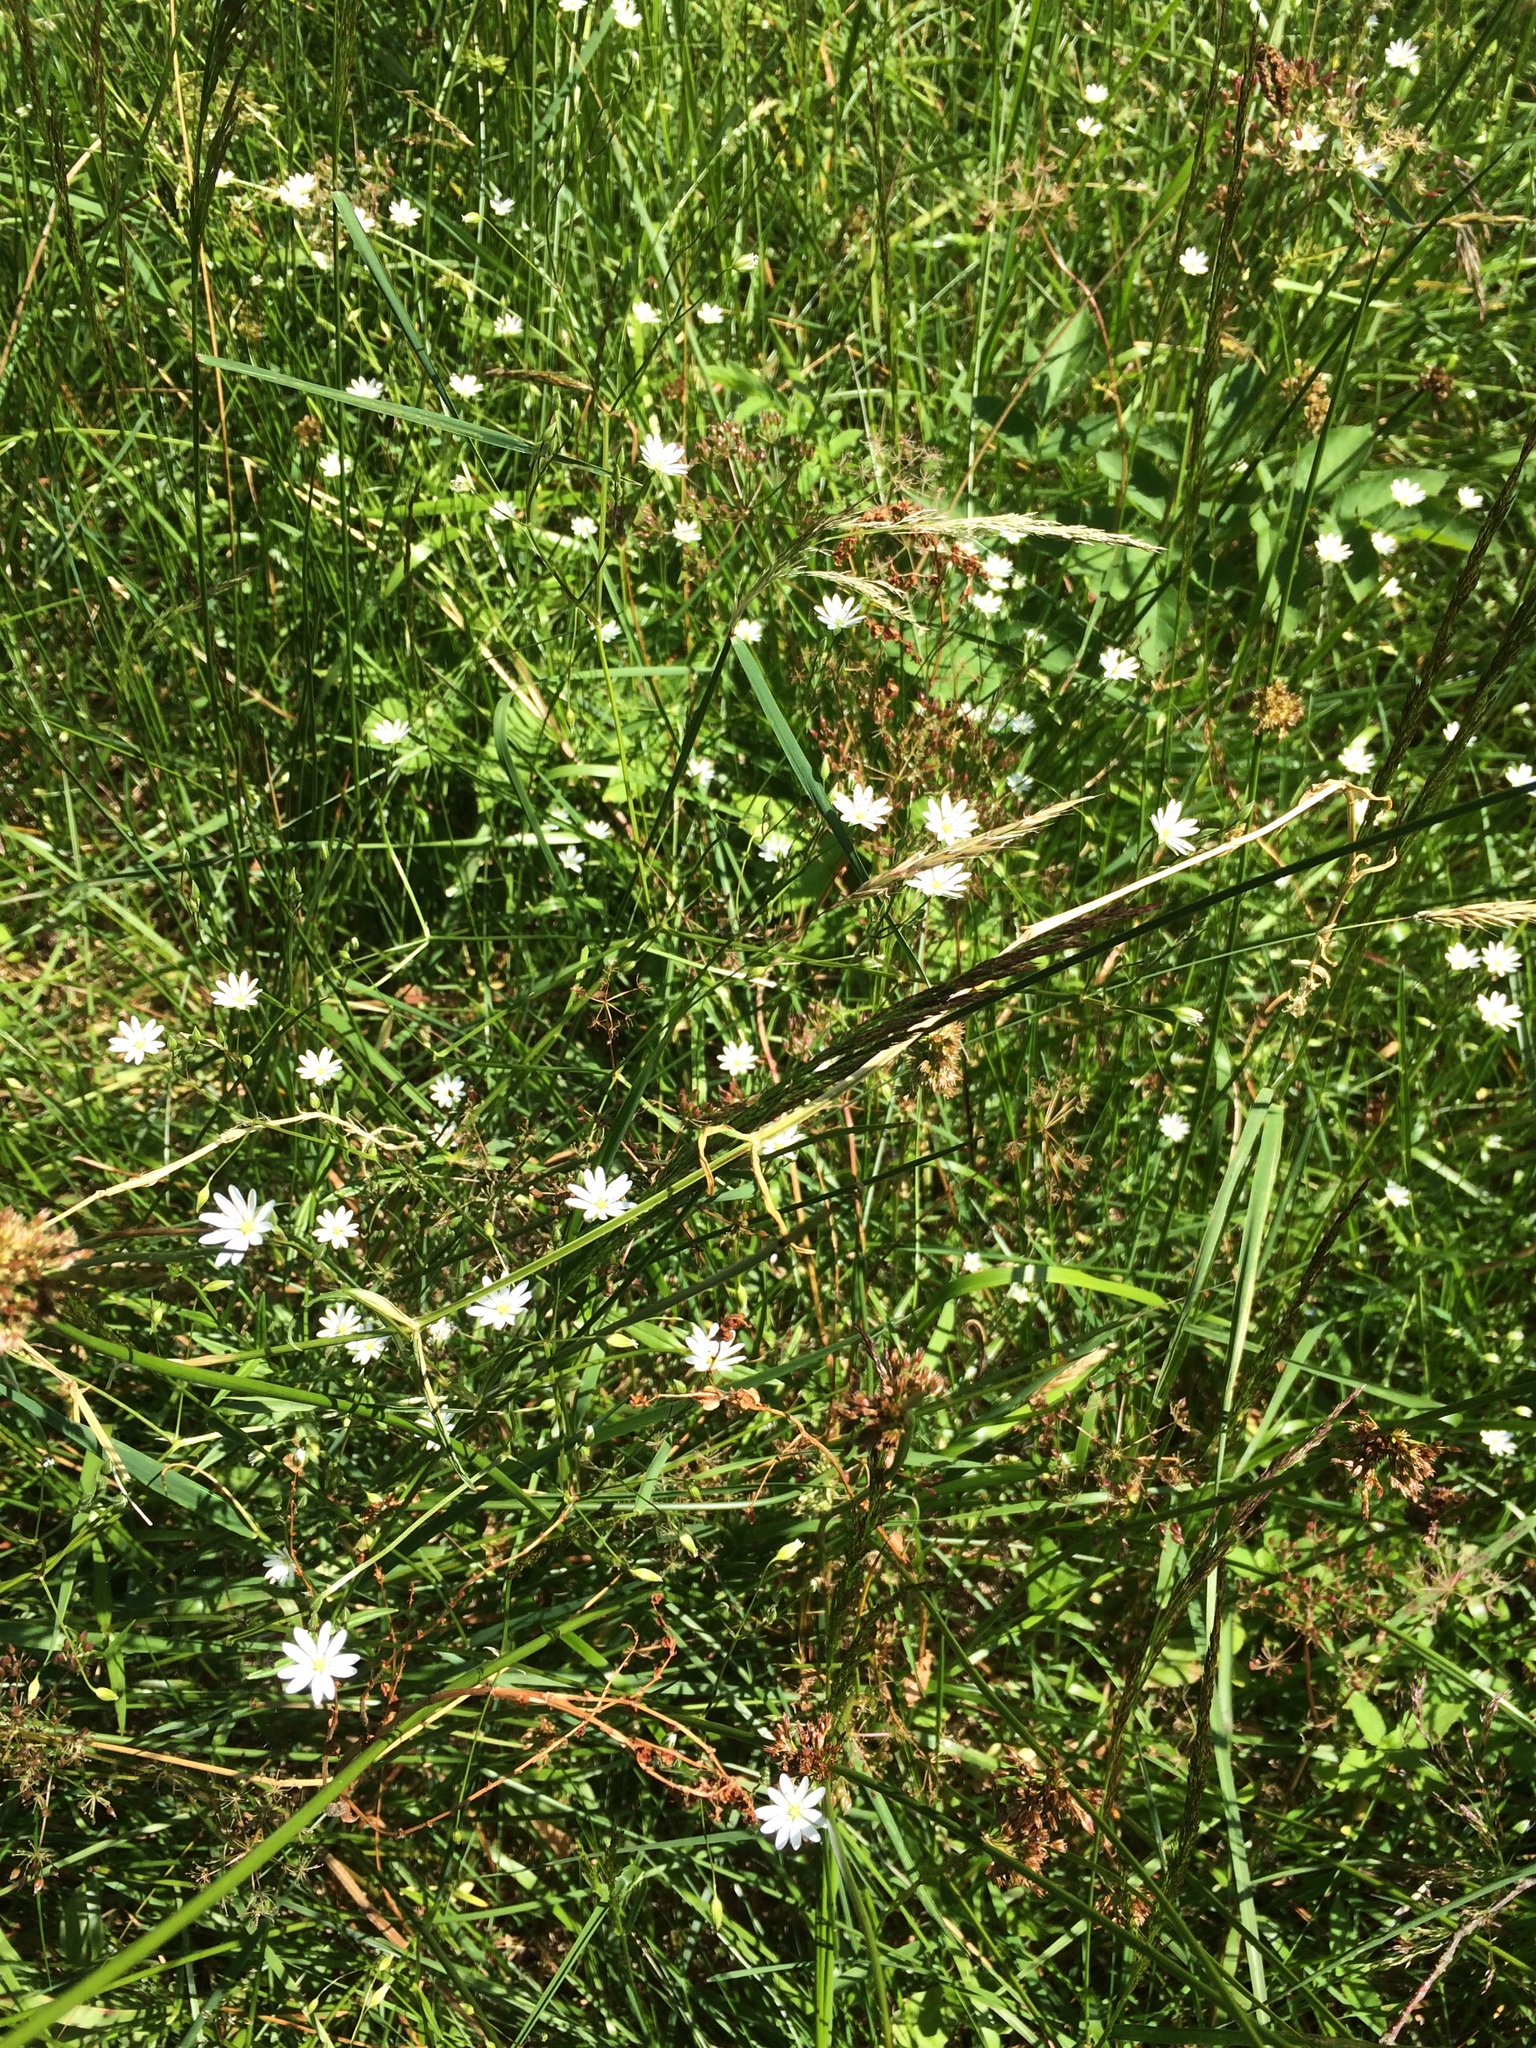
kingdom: Plantae
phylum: Tracheophyta
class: Magnoliopsida
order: Caryophyllales
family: Caryophyllaceae
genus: Stellaria
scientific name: Stellaria graminea
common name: Grass-like starwort
